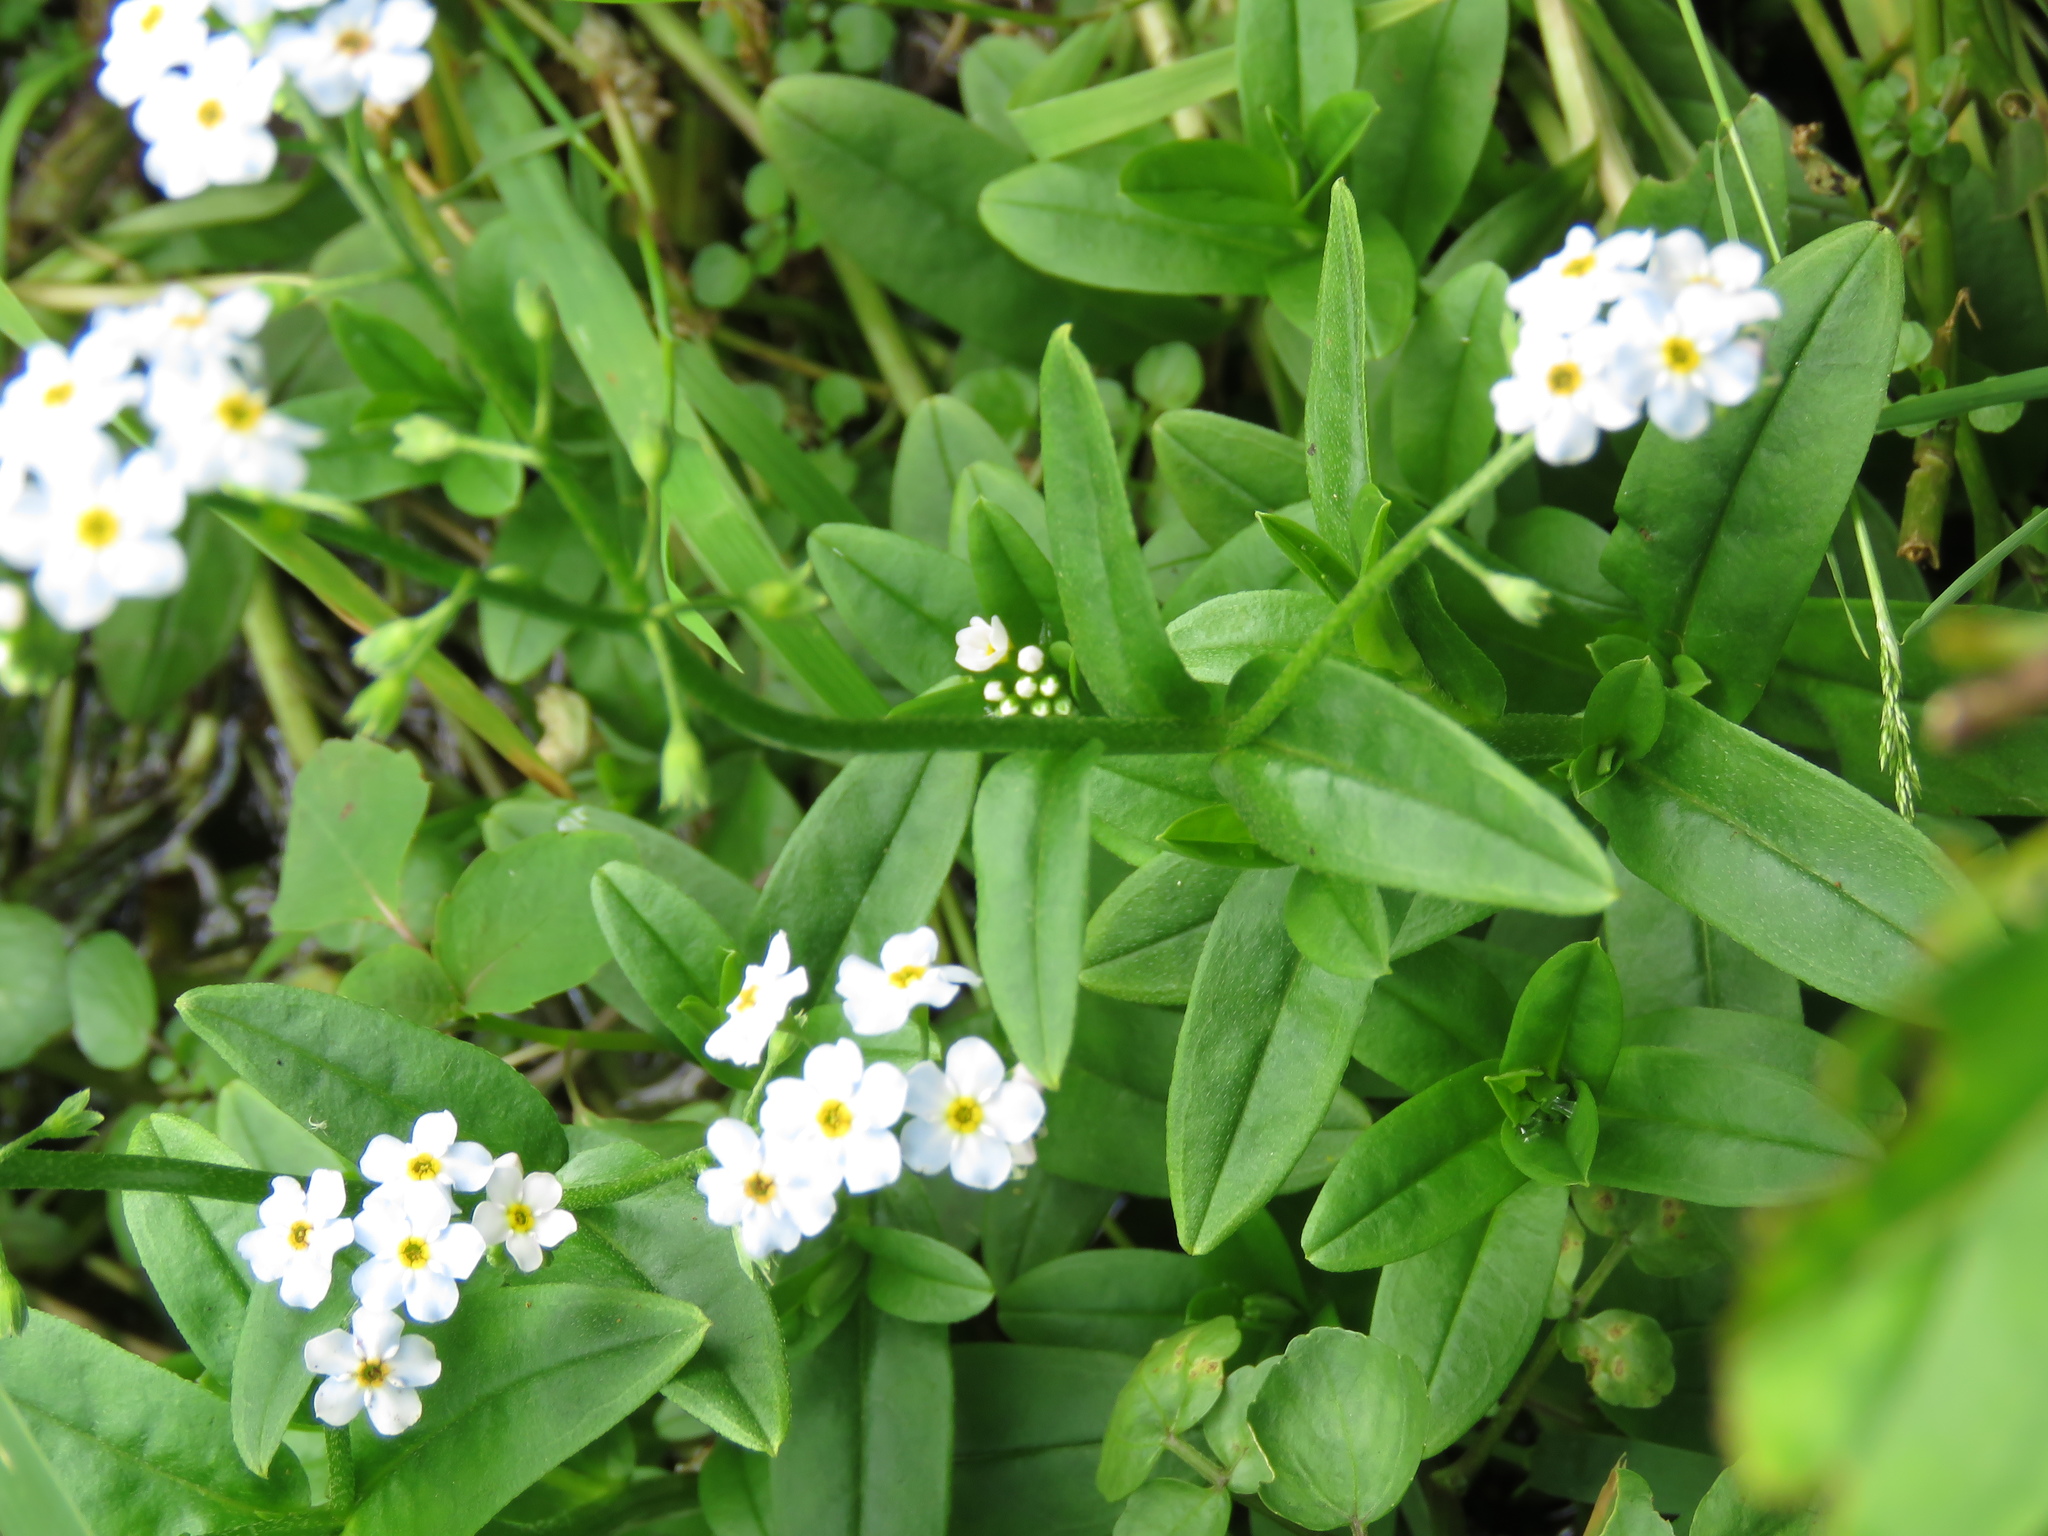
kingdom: Plantae
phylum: Tracheophyta
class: Magnoliopsida
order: Boraginales
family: Boraginaceae
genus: Myosotis
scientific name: Myosotis scorpioides
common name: Water forget-me-not
